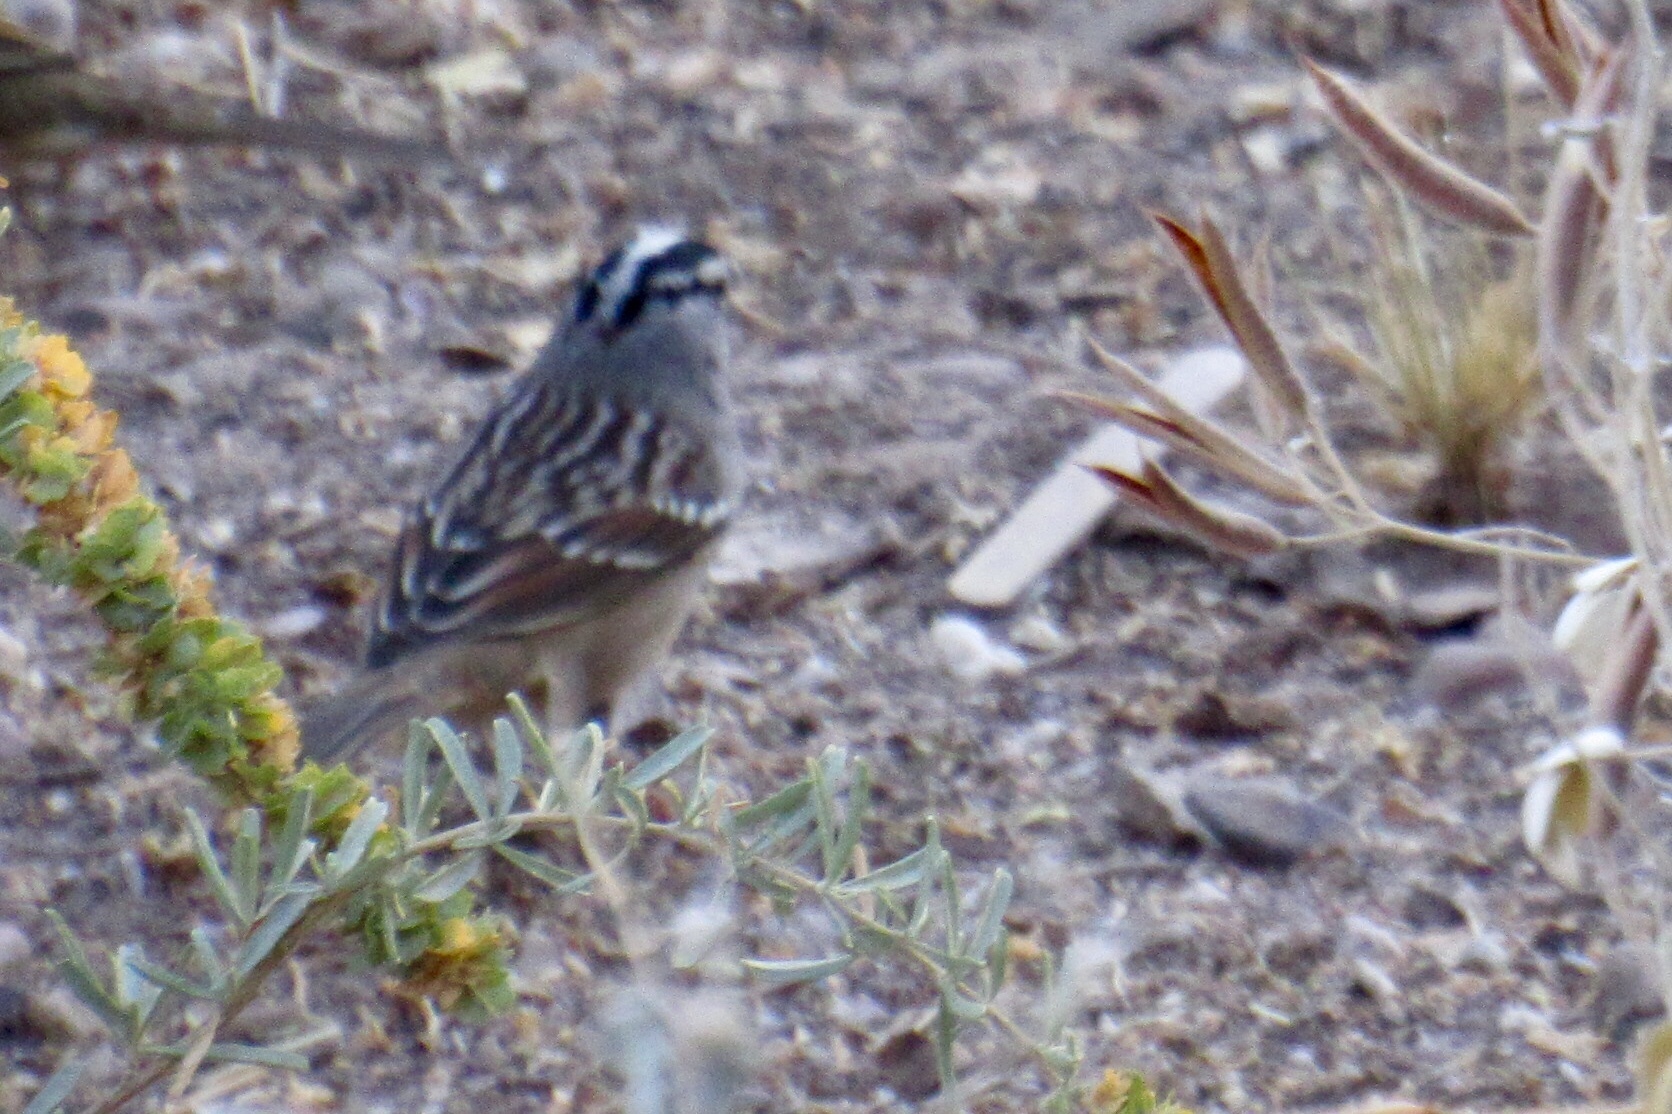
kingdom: Animalia
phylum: Chordata
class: Aves
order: Passeriformes
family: Passerellidae
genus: Zonotrichia
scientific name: Zonotrichia leucophrys
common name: White-crowned sparrow
